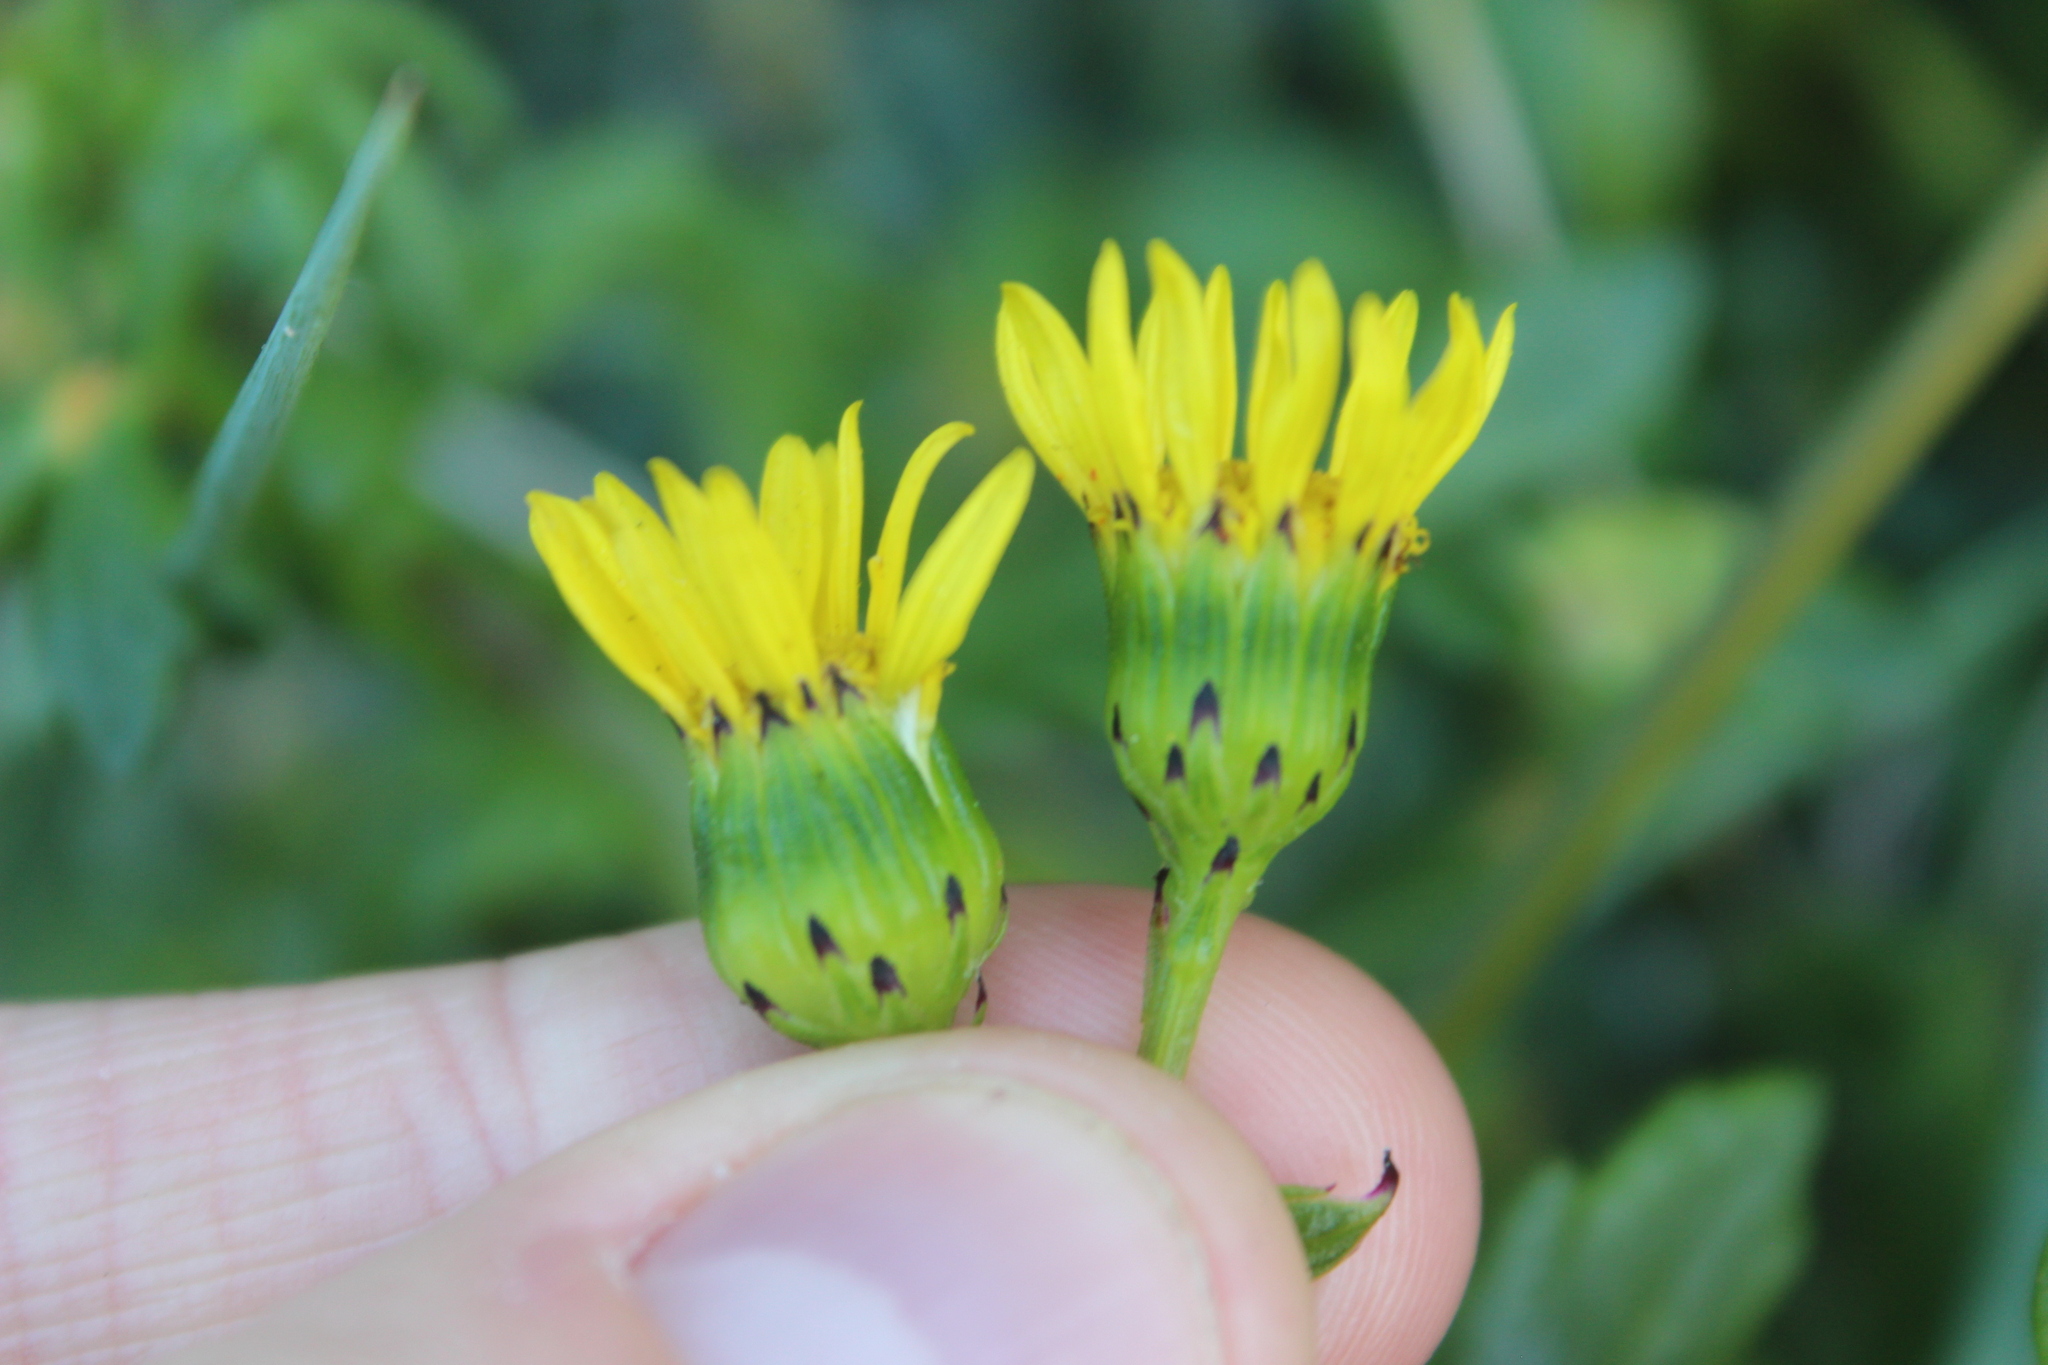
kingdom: Plantae
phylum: Tracheophyta
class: Magnoliopsida
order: Asterales
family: Asteraceae
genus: Senecio
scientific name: Senecio lautus
